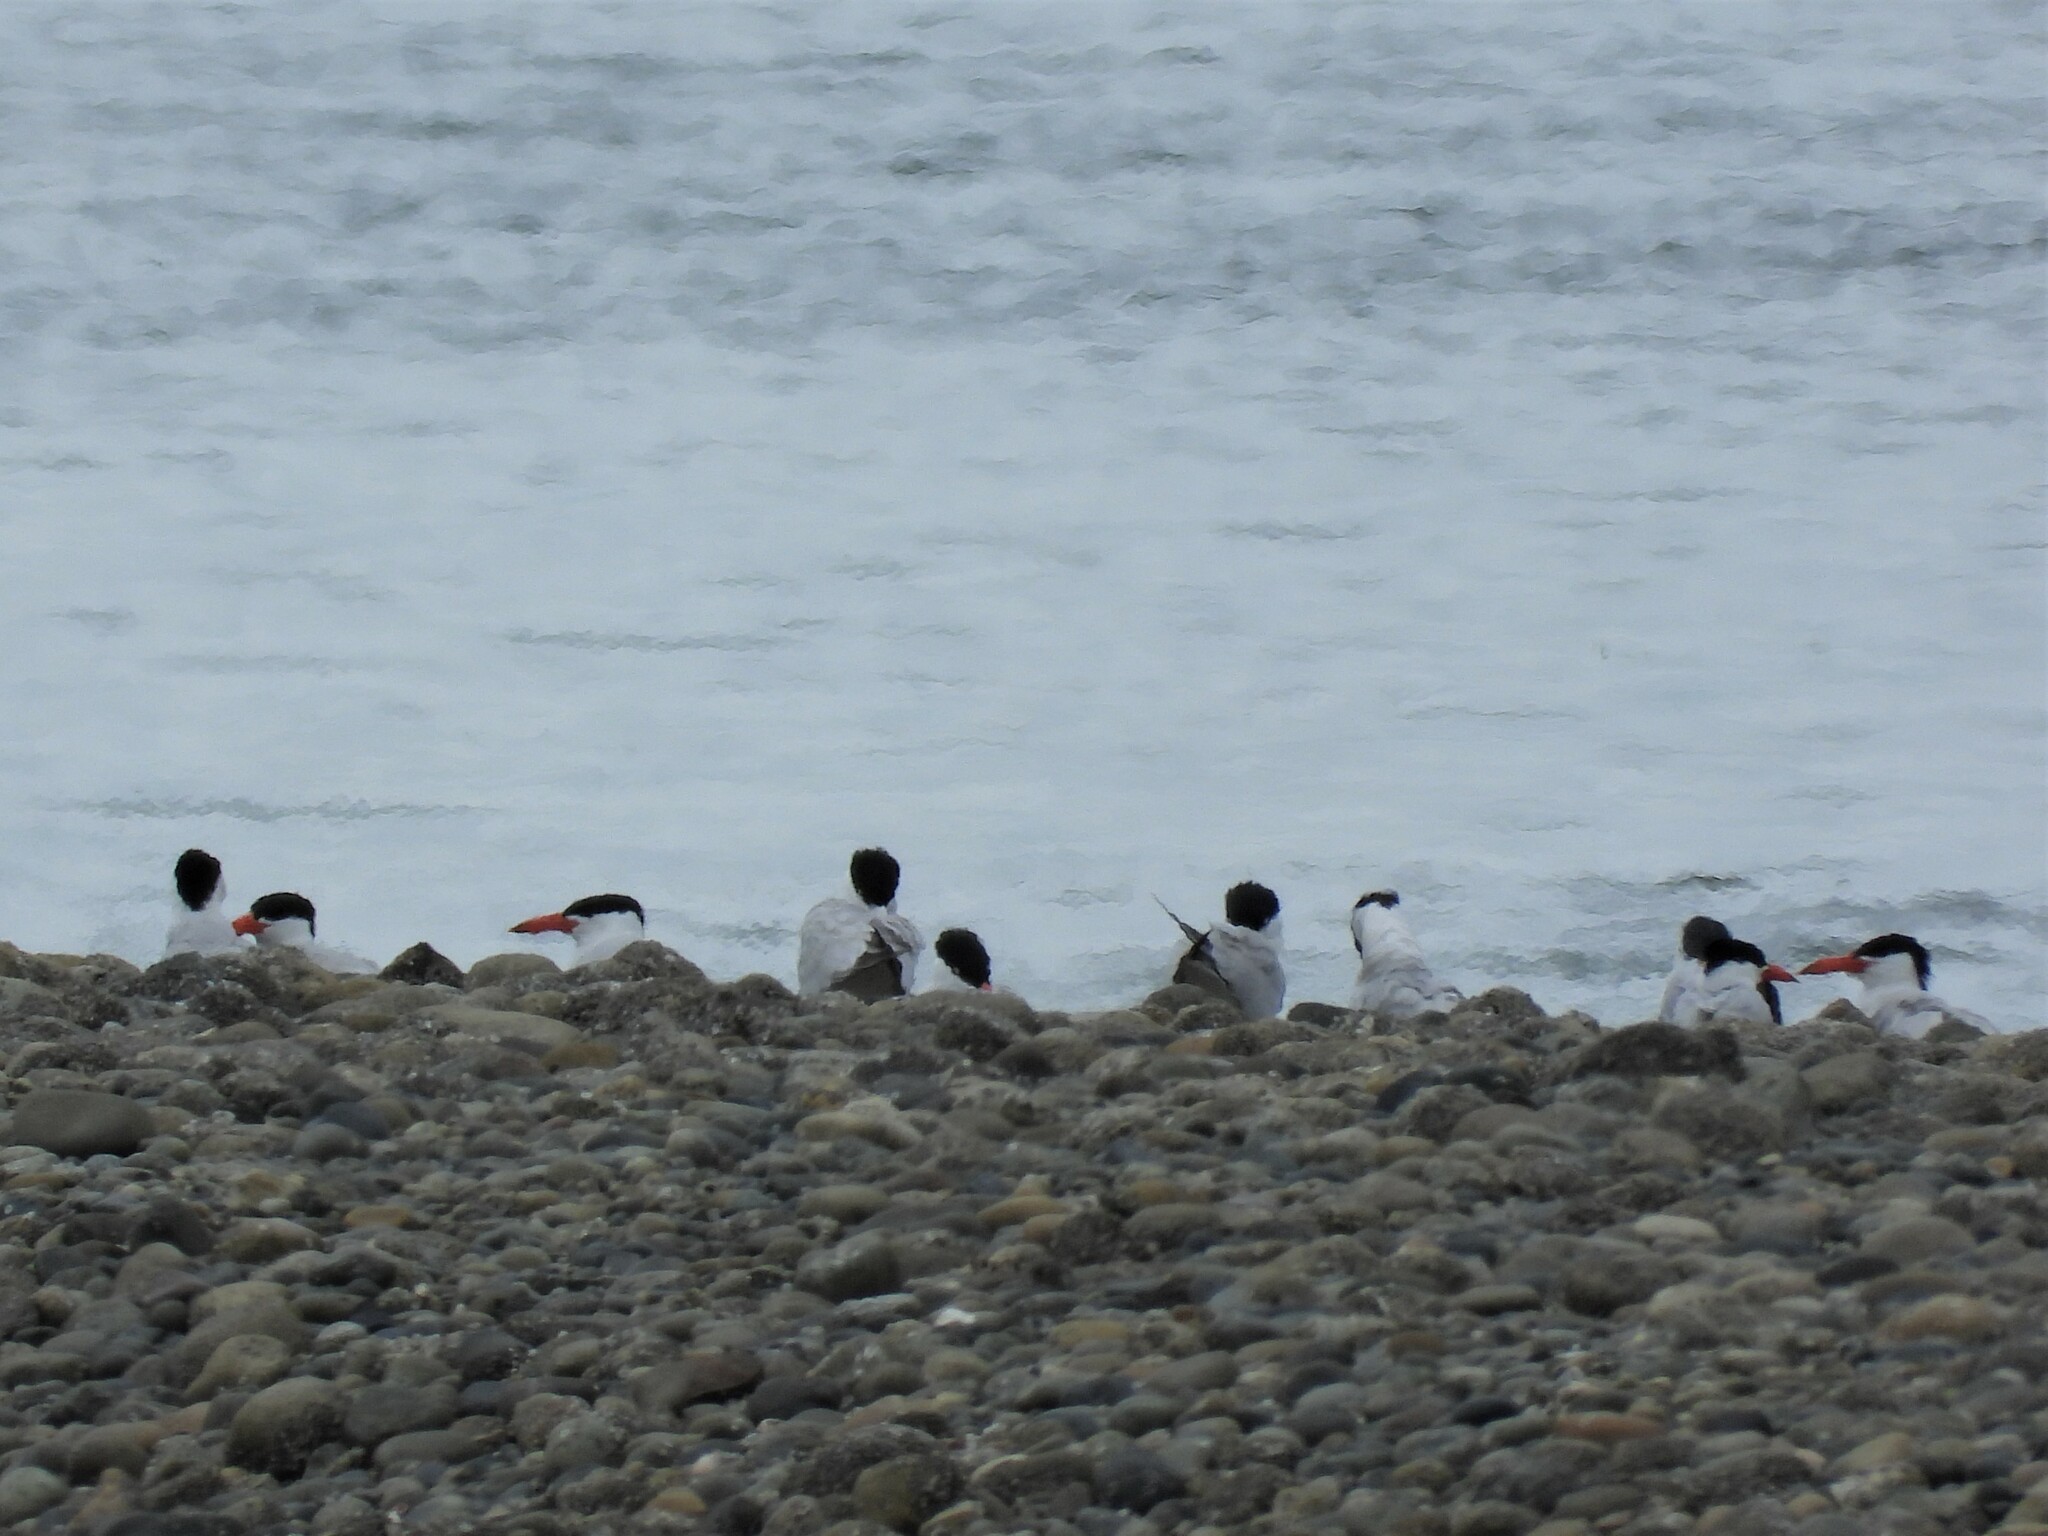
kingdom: Animalia
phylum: Chordata
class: Aves
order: Charadriiformes
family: Laridae
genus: Hydroprogne
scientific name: Hydroprogne caspia
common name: Caspian tern
